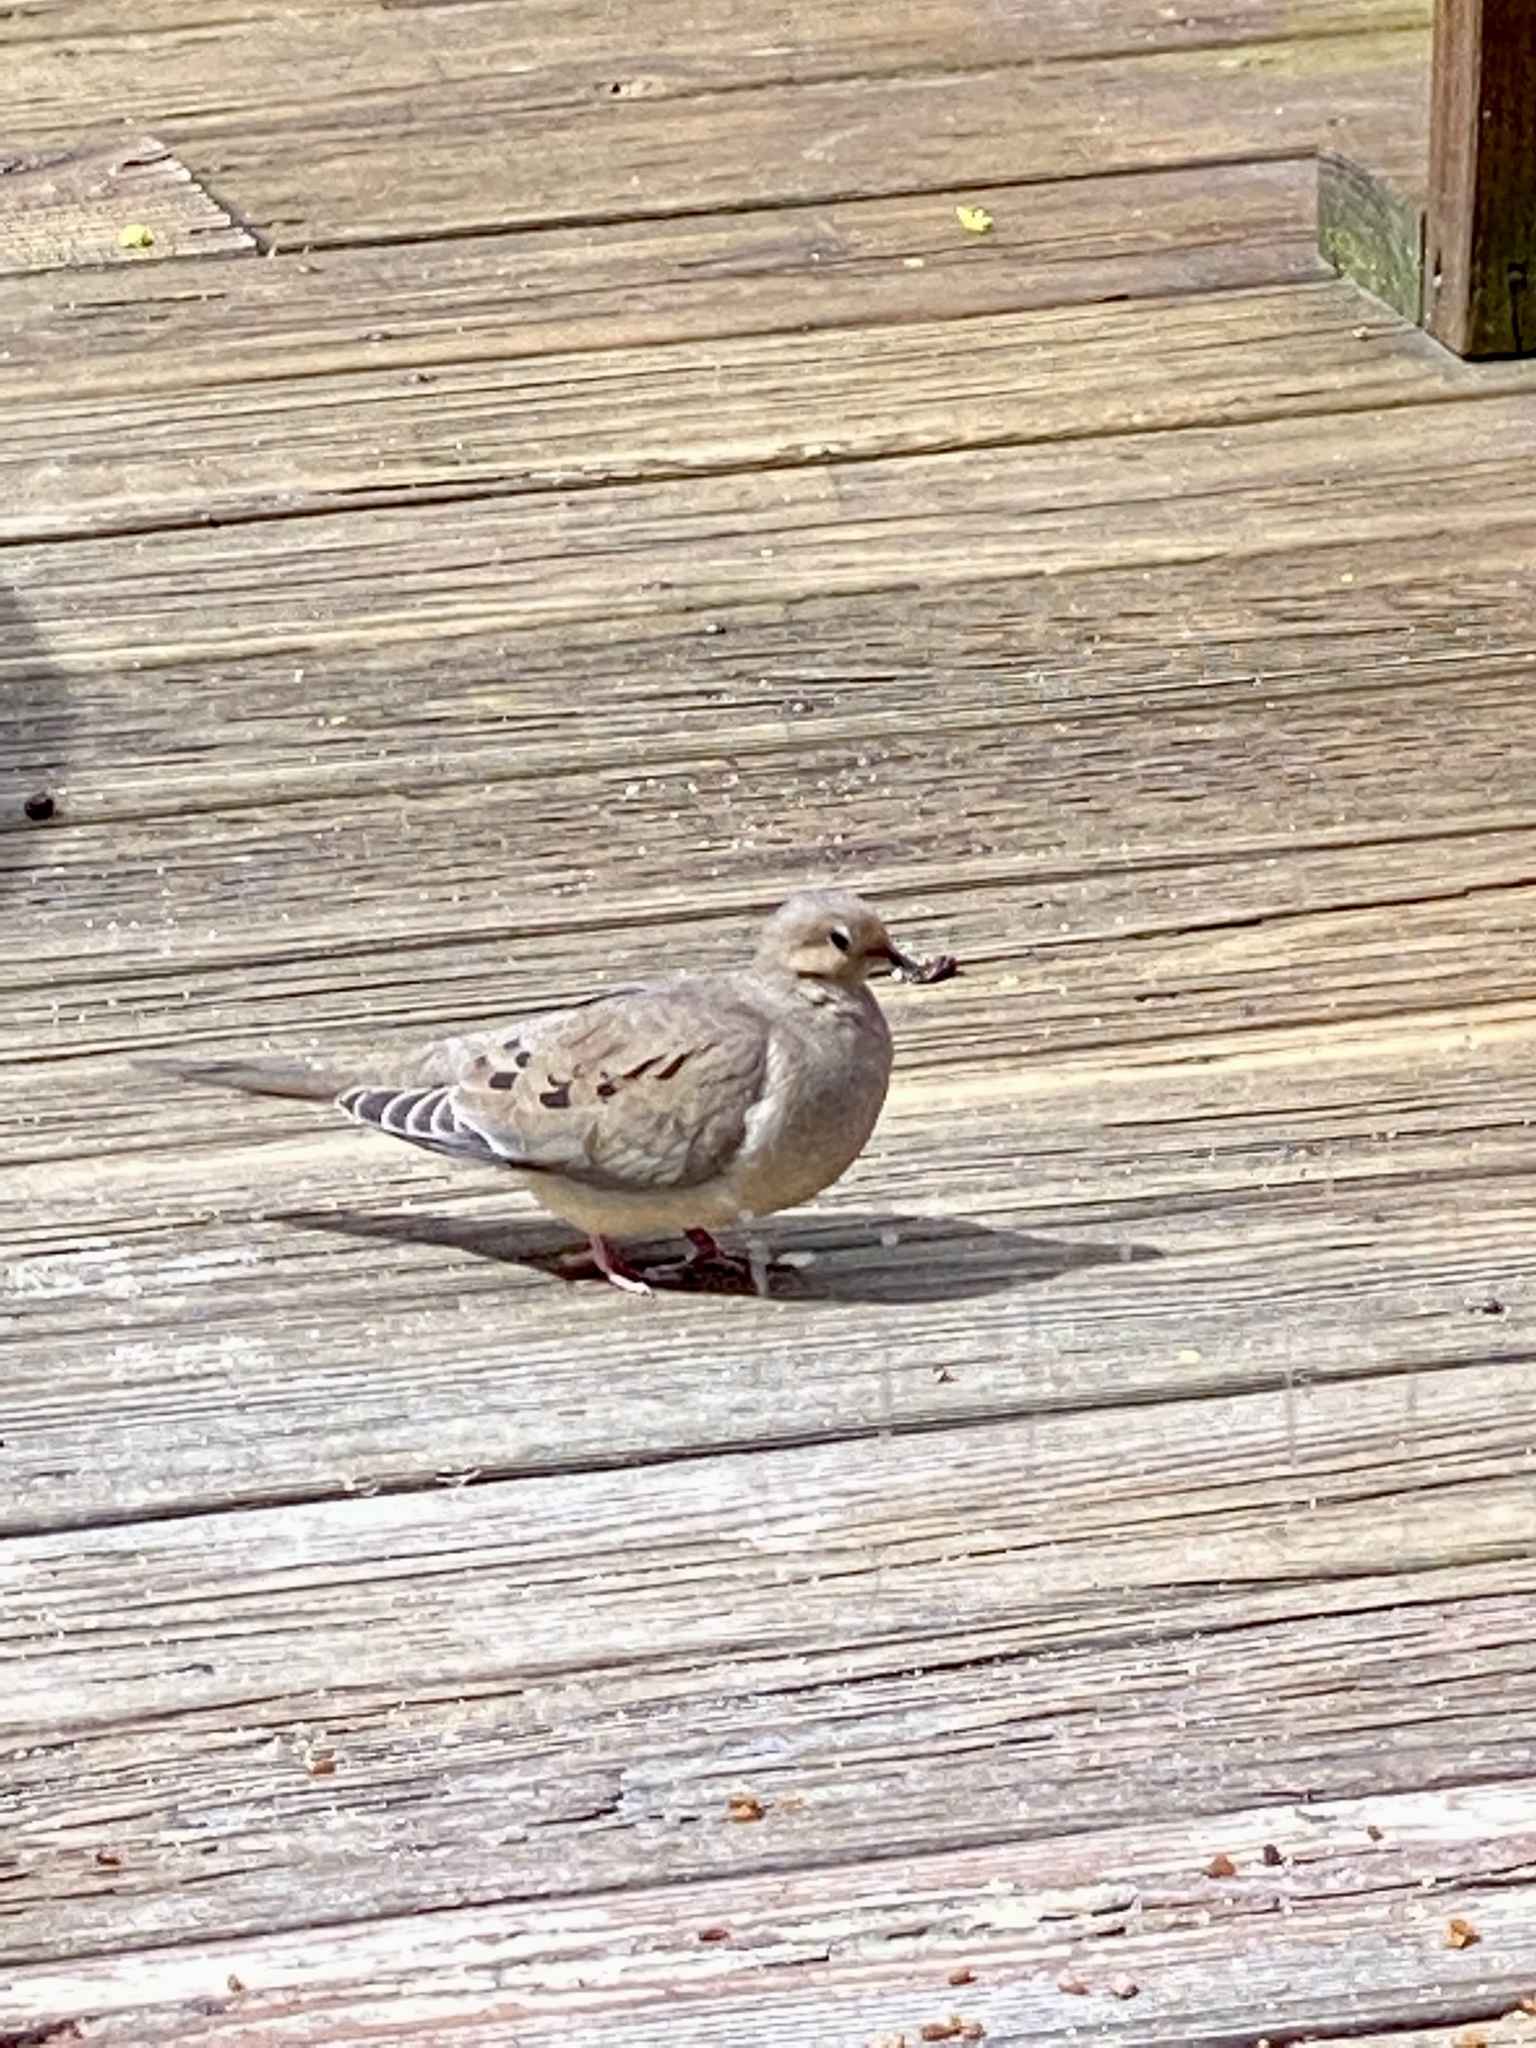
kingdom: Animalia
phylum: Chordata
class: Aves
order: Columbiformes
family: Columbidae
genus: Zenaida
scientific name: Zenaida macroura
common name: Mourning dove
